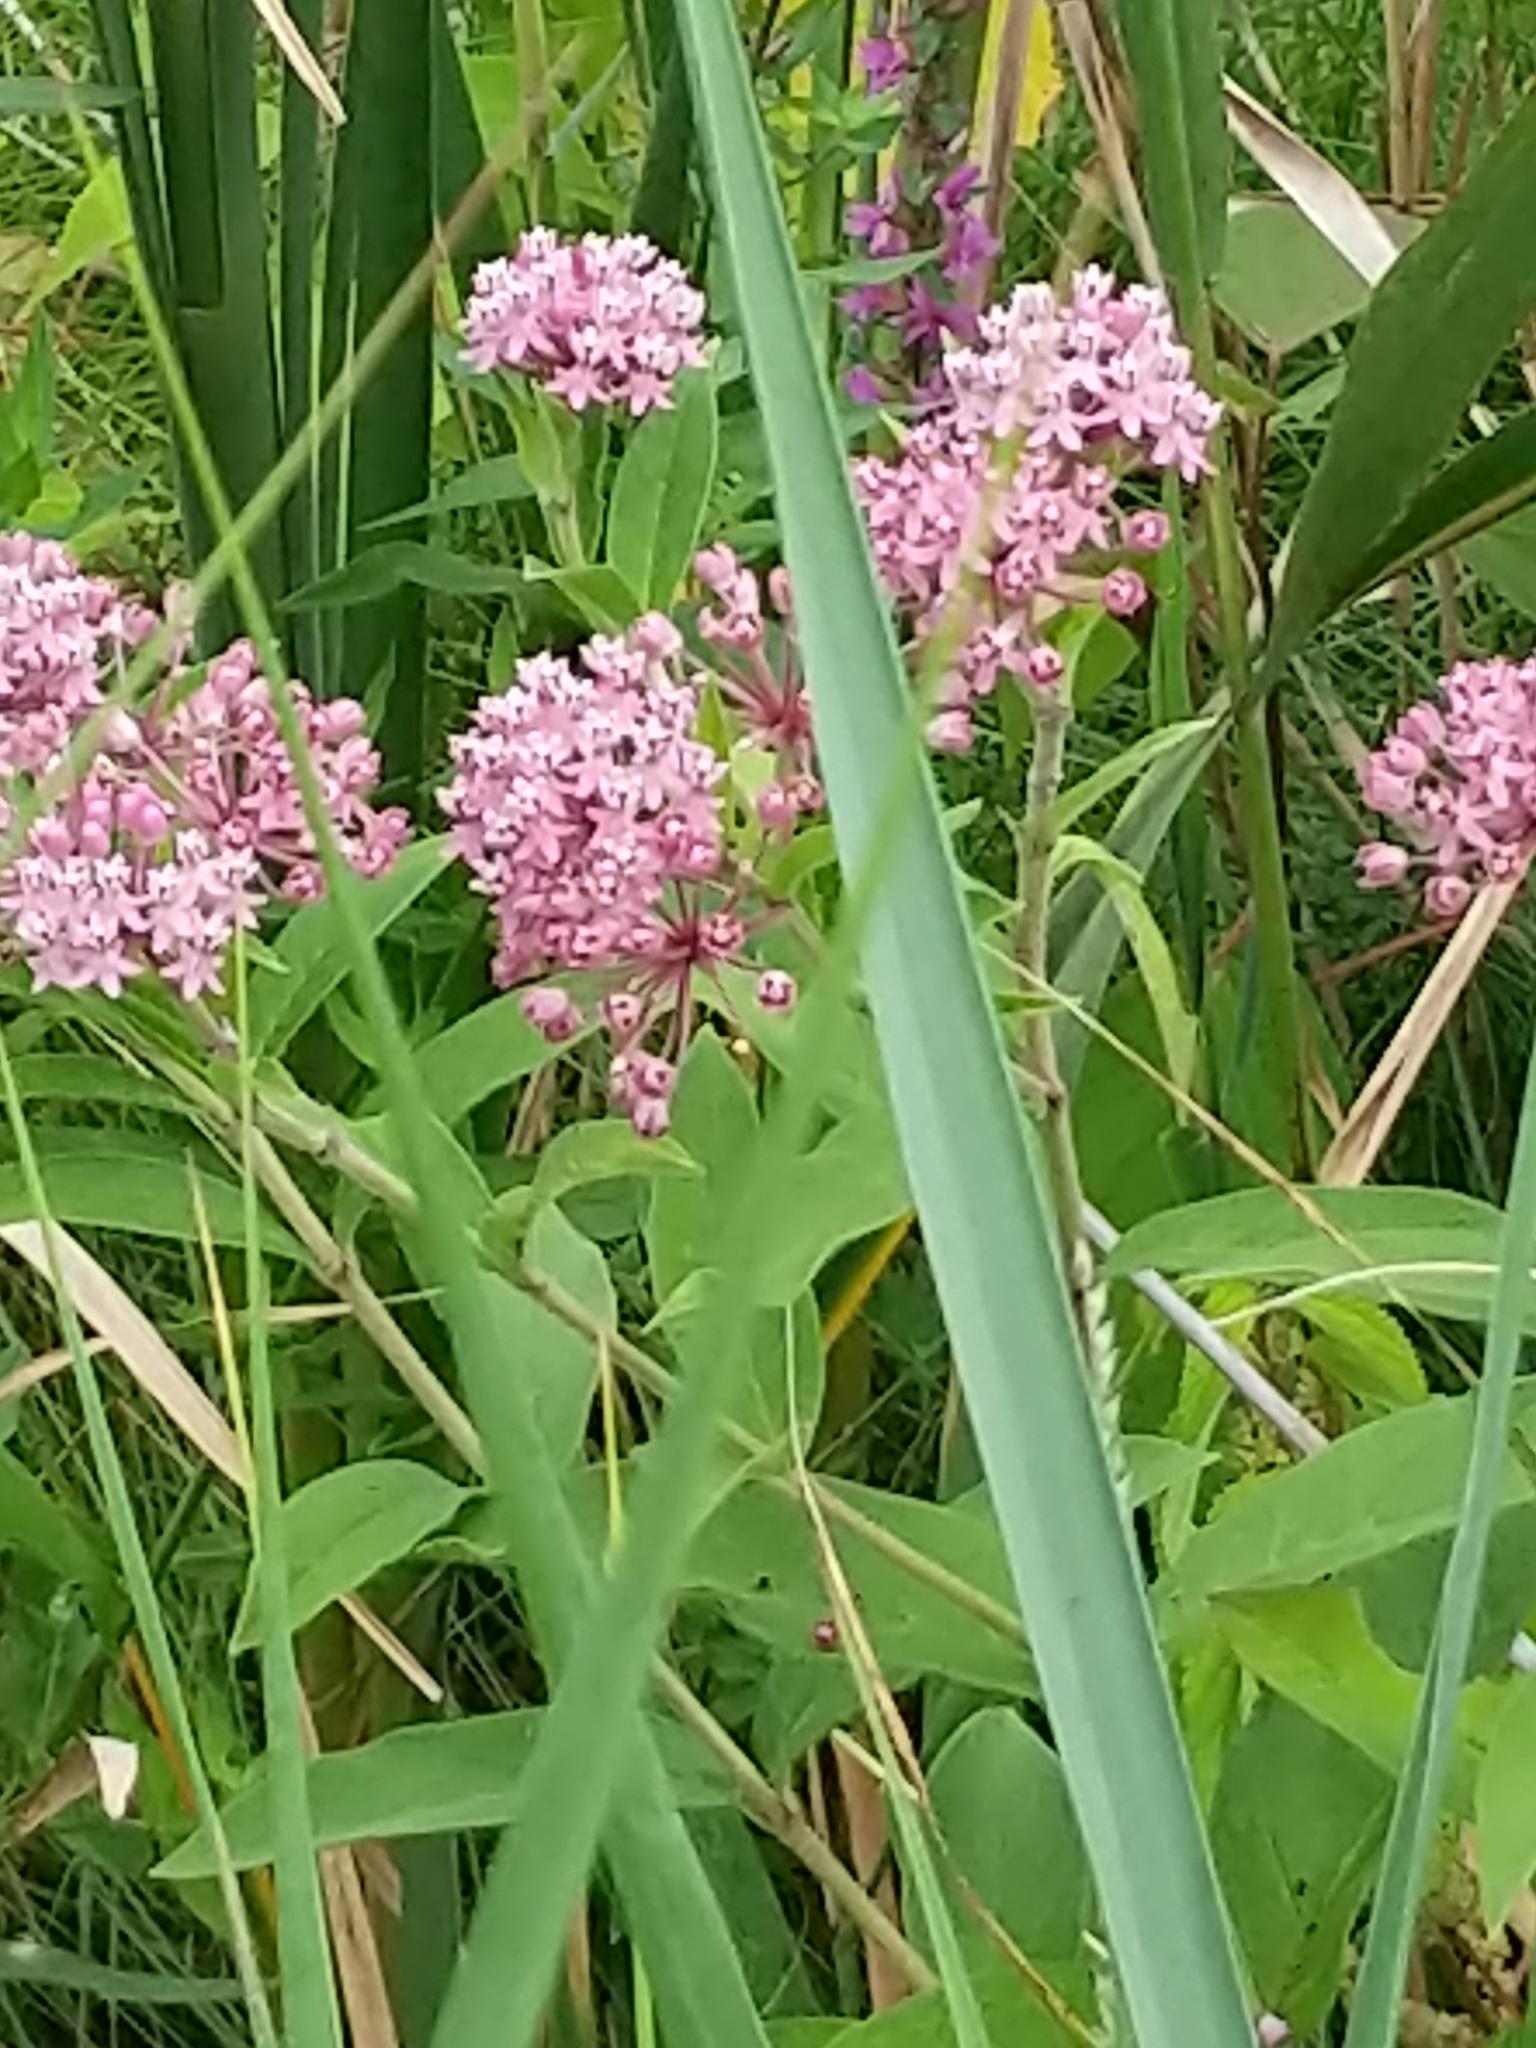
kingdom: Plantae
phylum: Tracheophyta
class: Magnoliopsida
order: Gentianales
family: Apocynaceae
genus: Asclepias
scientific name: Asclepias incarnata
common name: Swamp milkweed
